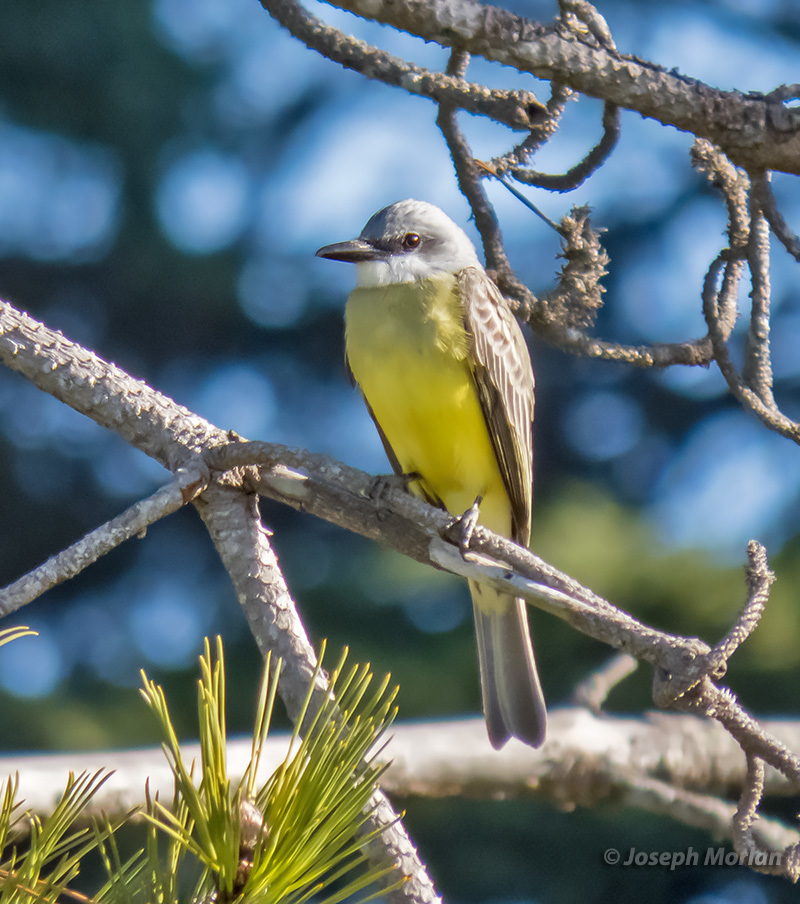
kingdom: Animalia
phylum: Chordata
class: Aves
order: Passeriformes
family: Tyrannidae
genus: Tyrannus
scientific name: Tyrannus melancholicus
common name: Tropical kingbird
